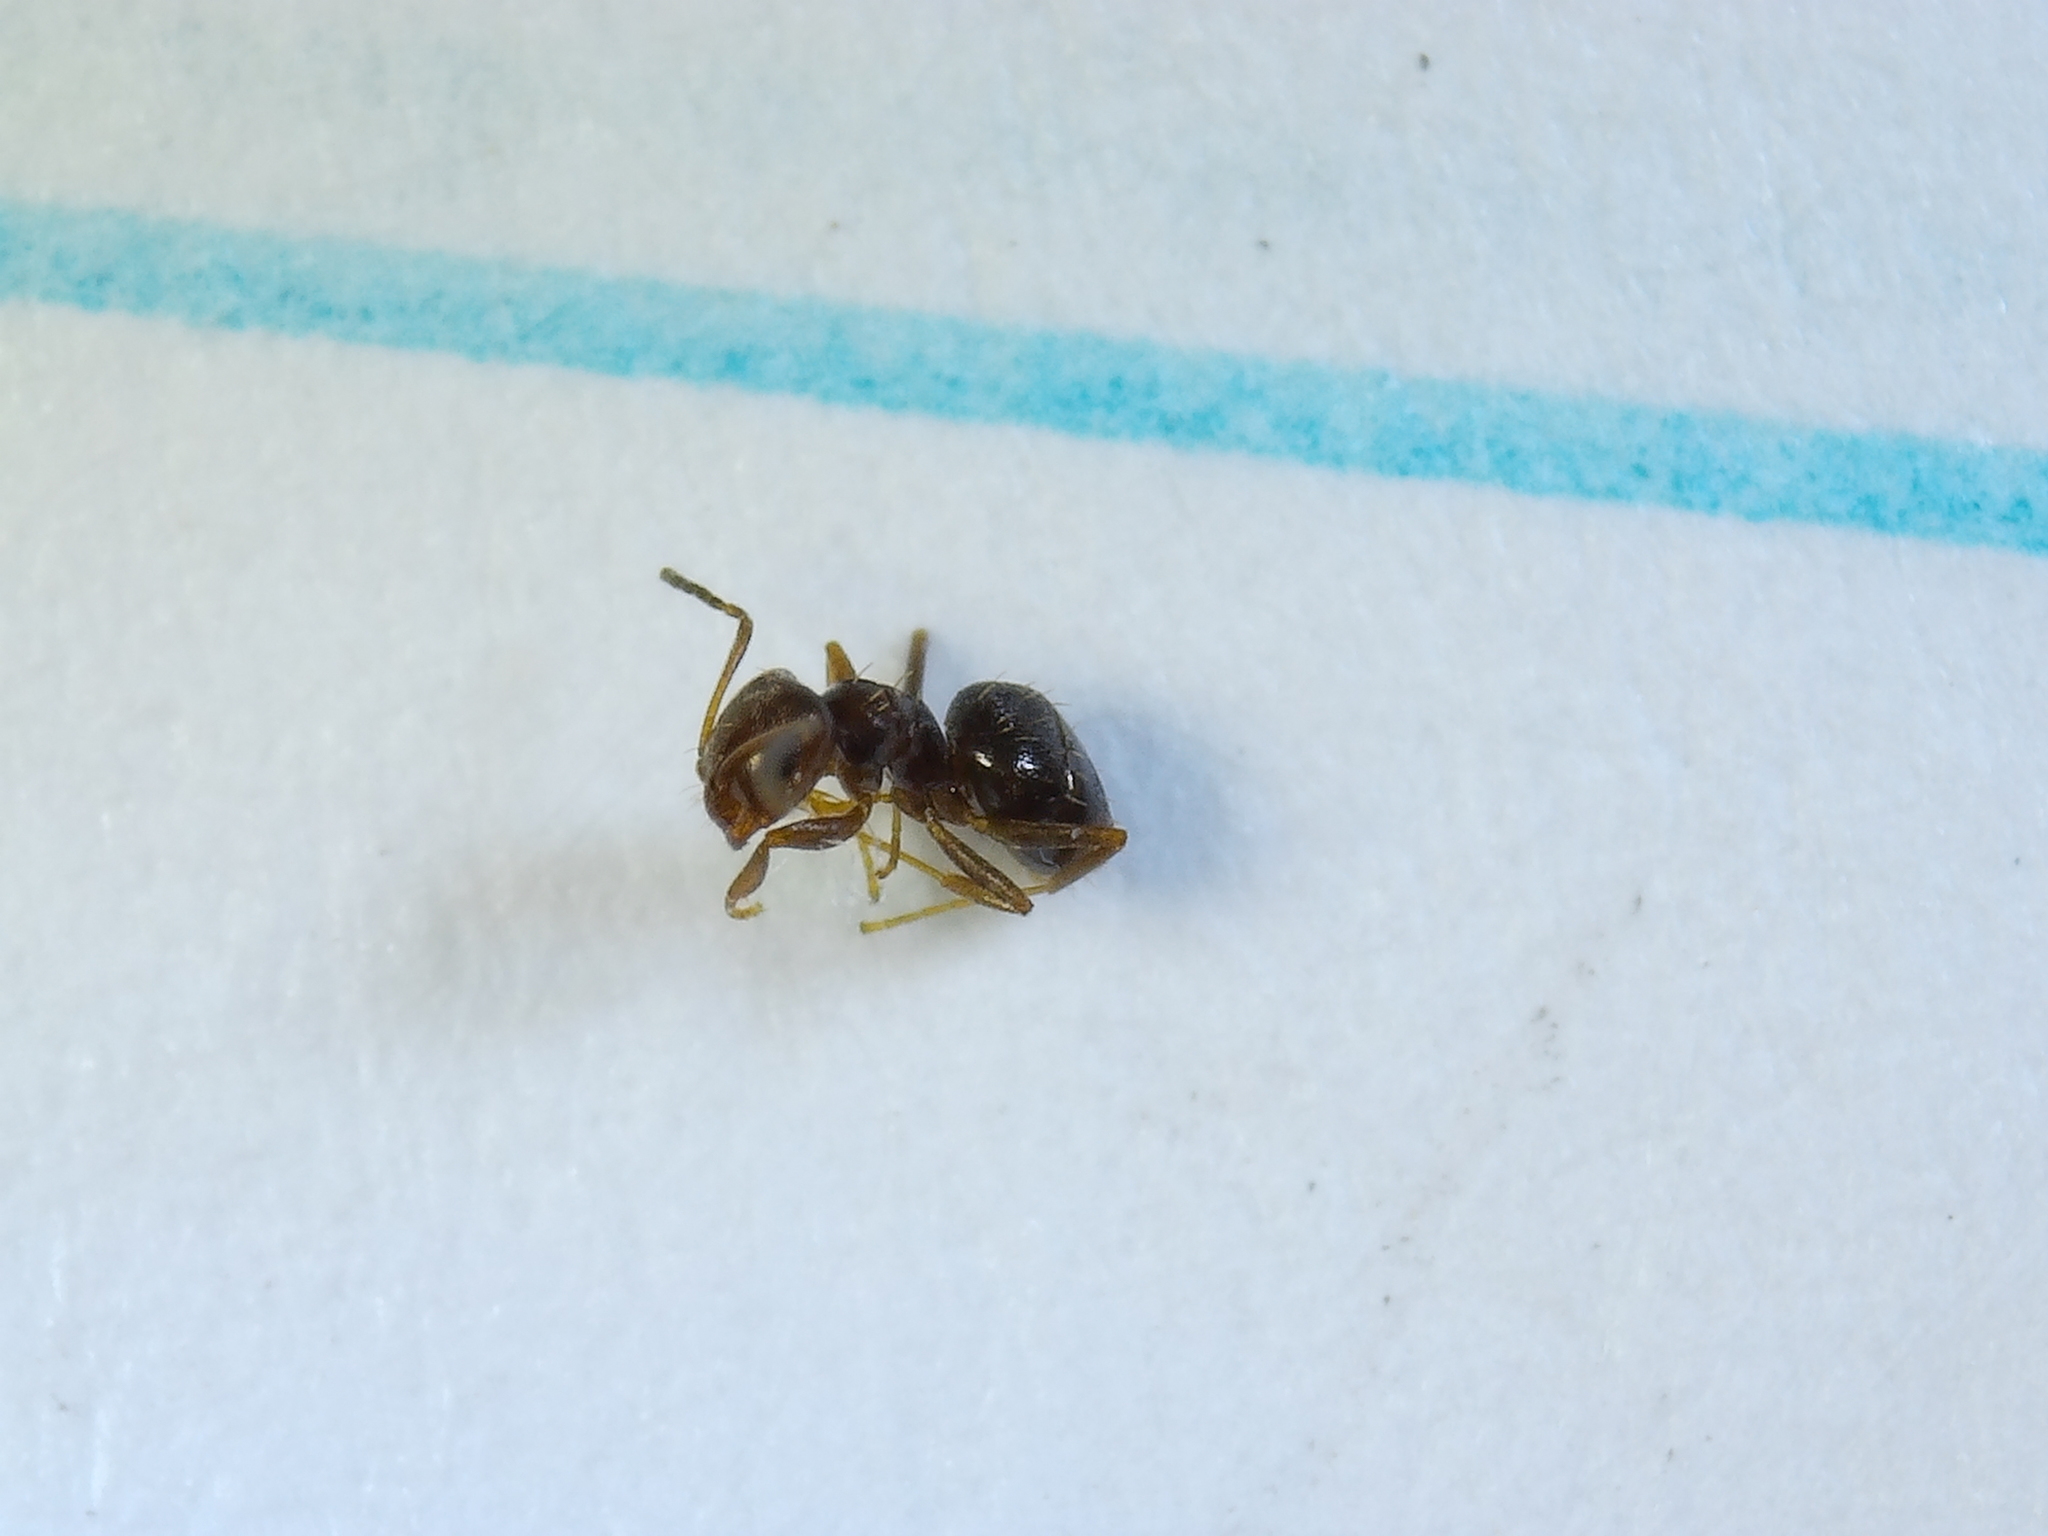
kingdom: Animalia
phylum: Arthropoda
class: Insecta
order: Hymenoptera
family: Formicidae
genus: Brachymyrmex
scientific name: Brachymyrmex patagonicus
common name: Dark rover ant
